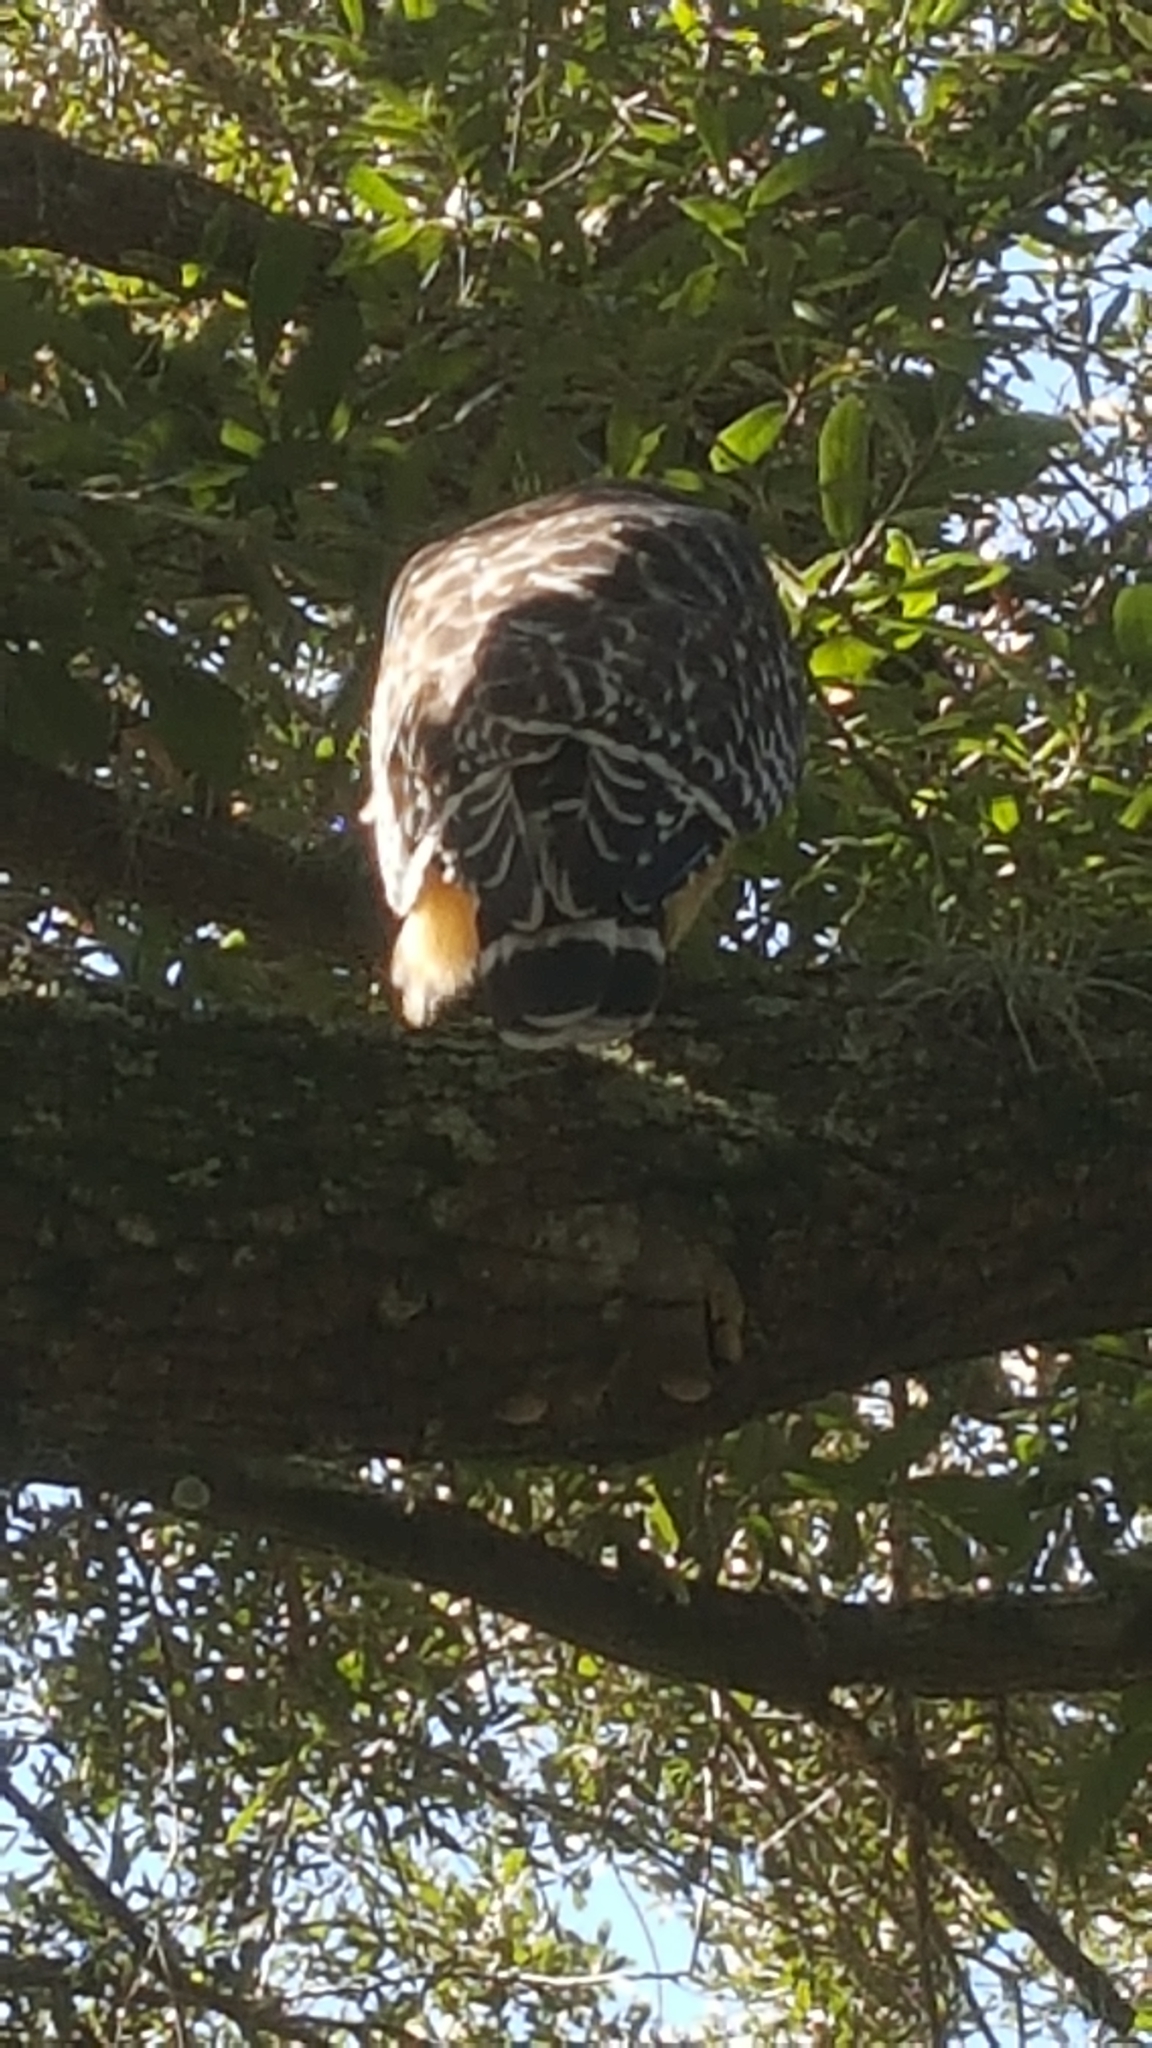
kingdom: Animalia
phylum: Chordata
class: Aves
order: Accipitriformes
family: Accipitridae
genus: Buteo
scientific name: Buteo lineatus
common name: Red-shouldered hawk
